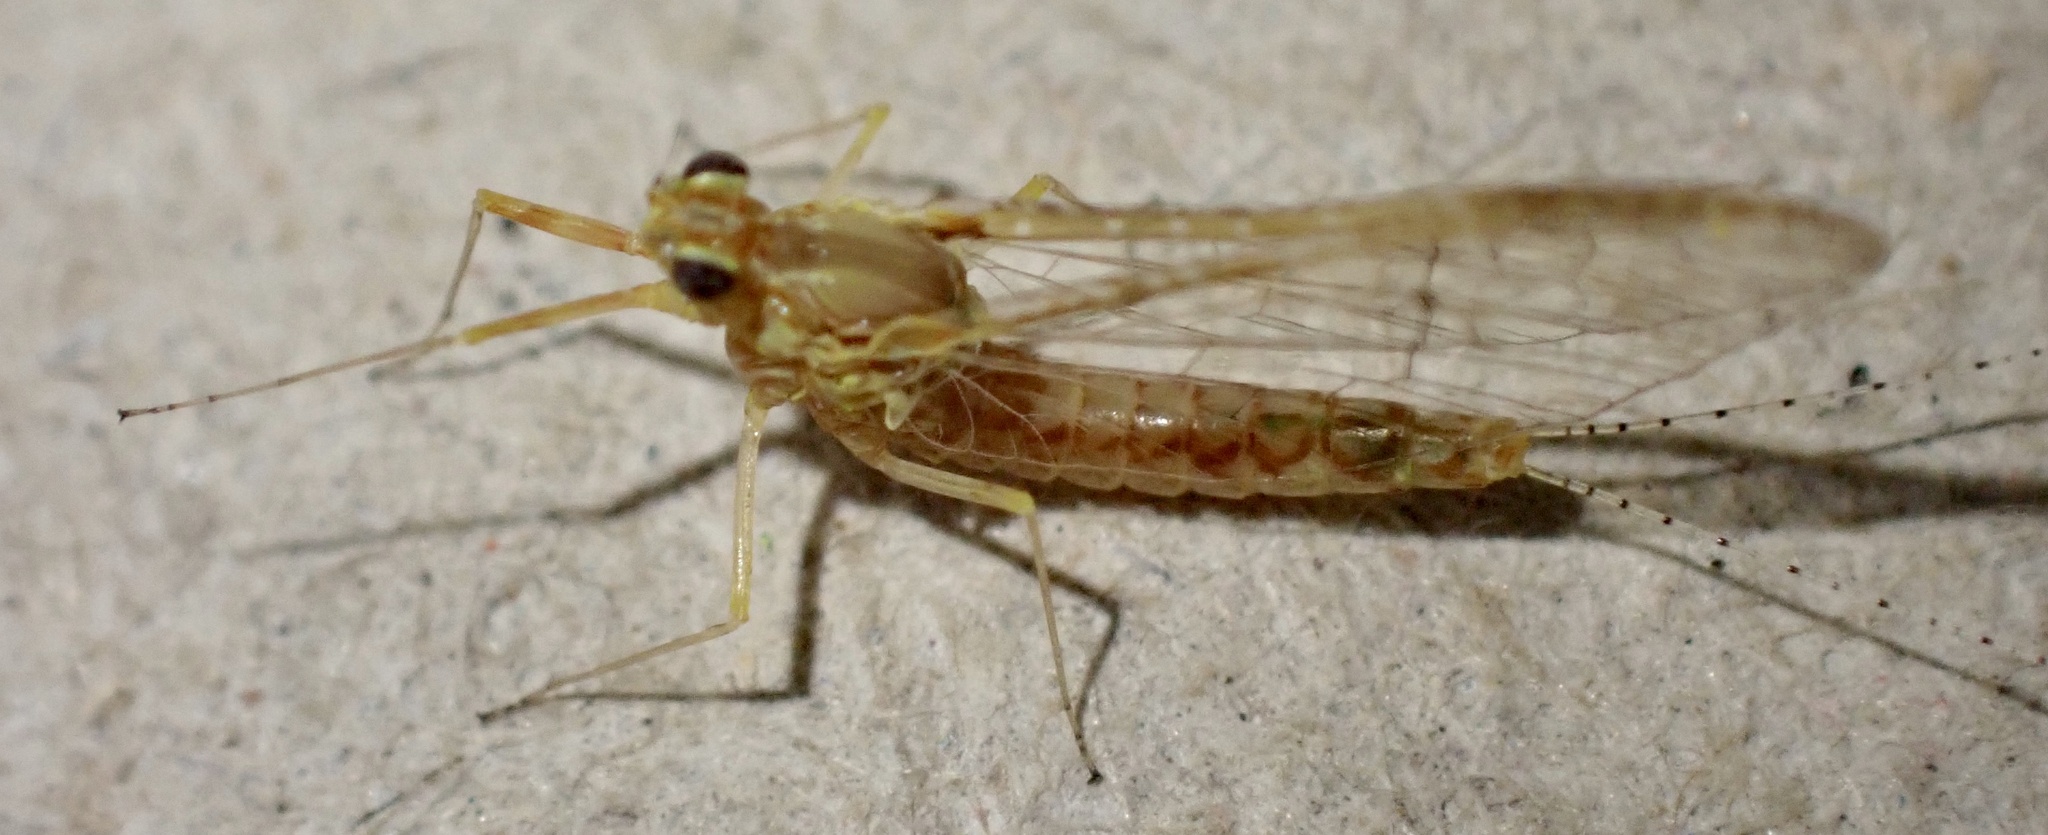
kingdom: Animalia
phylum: Arthropoda
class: Insecta
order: Ephemeroptera
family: Baetidae
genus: Cloeon
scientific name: Cloeon dipterum
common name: Pond olive
